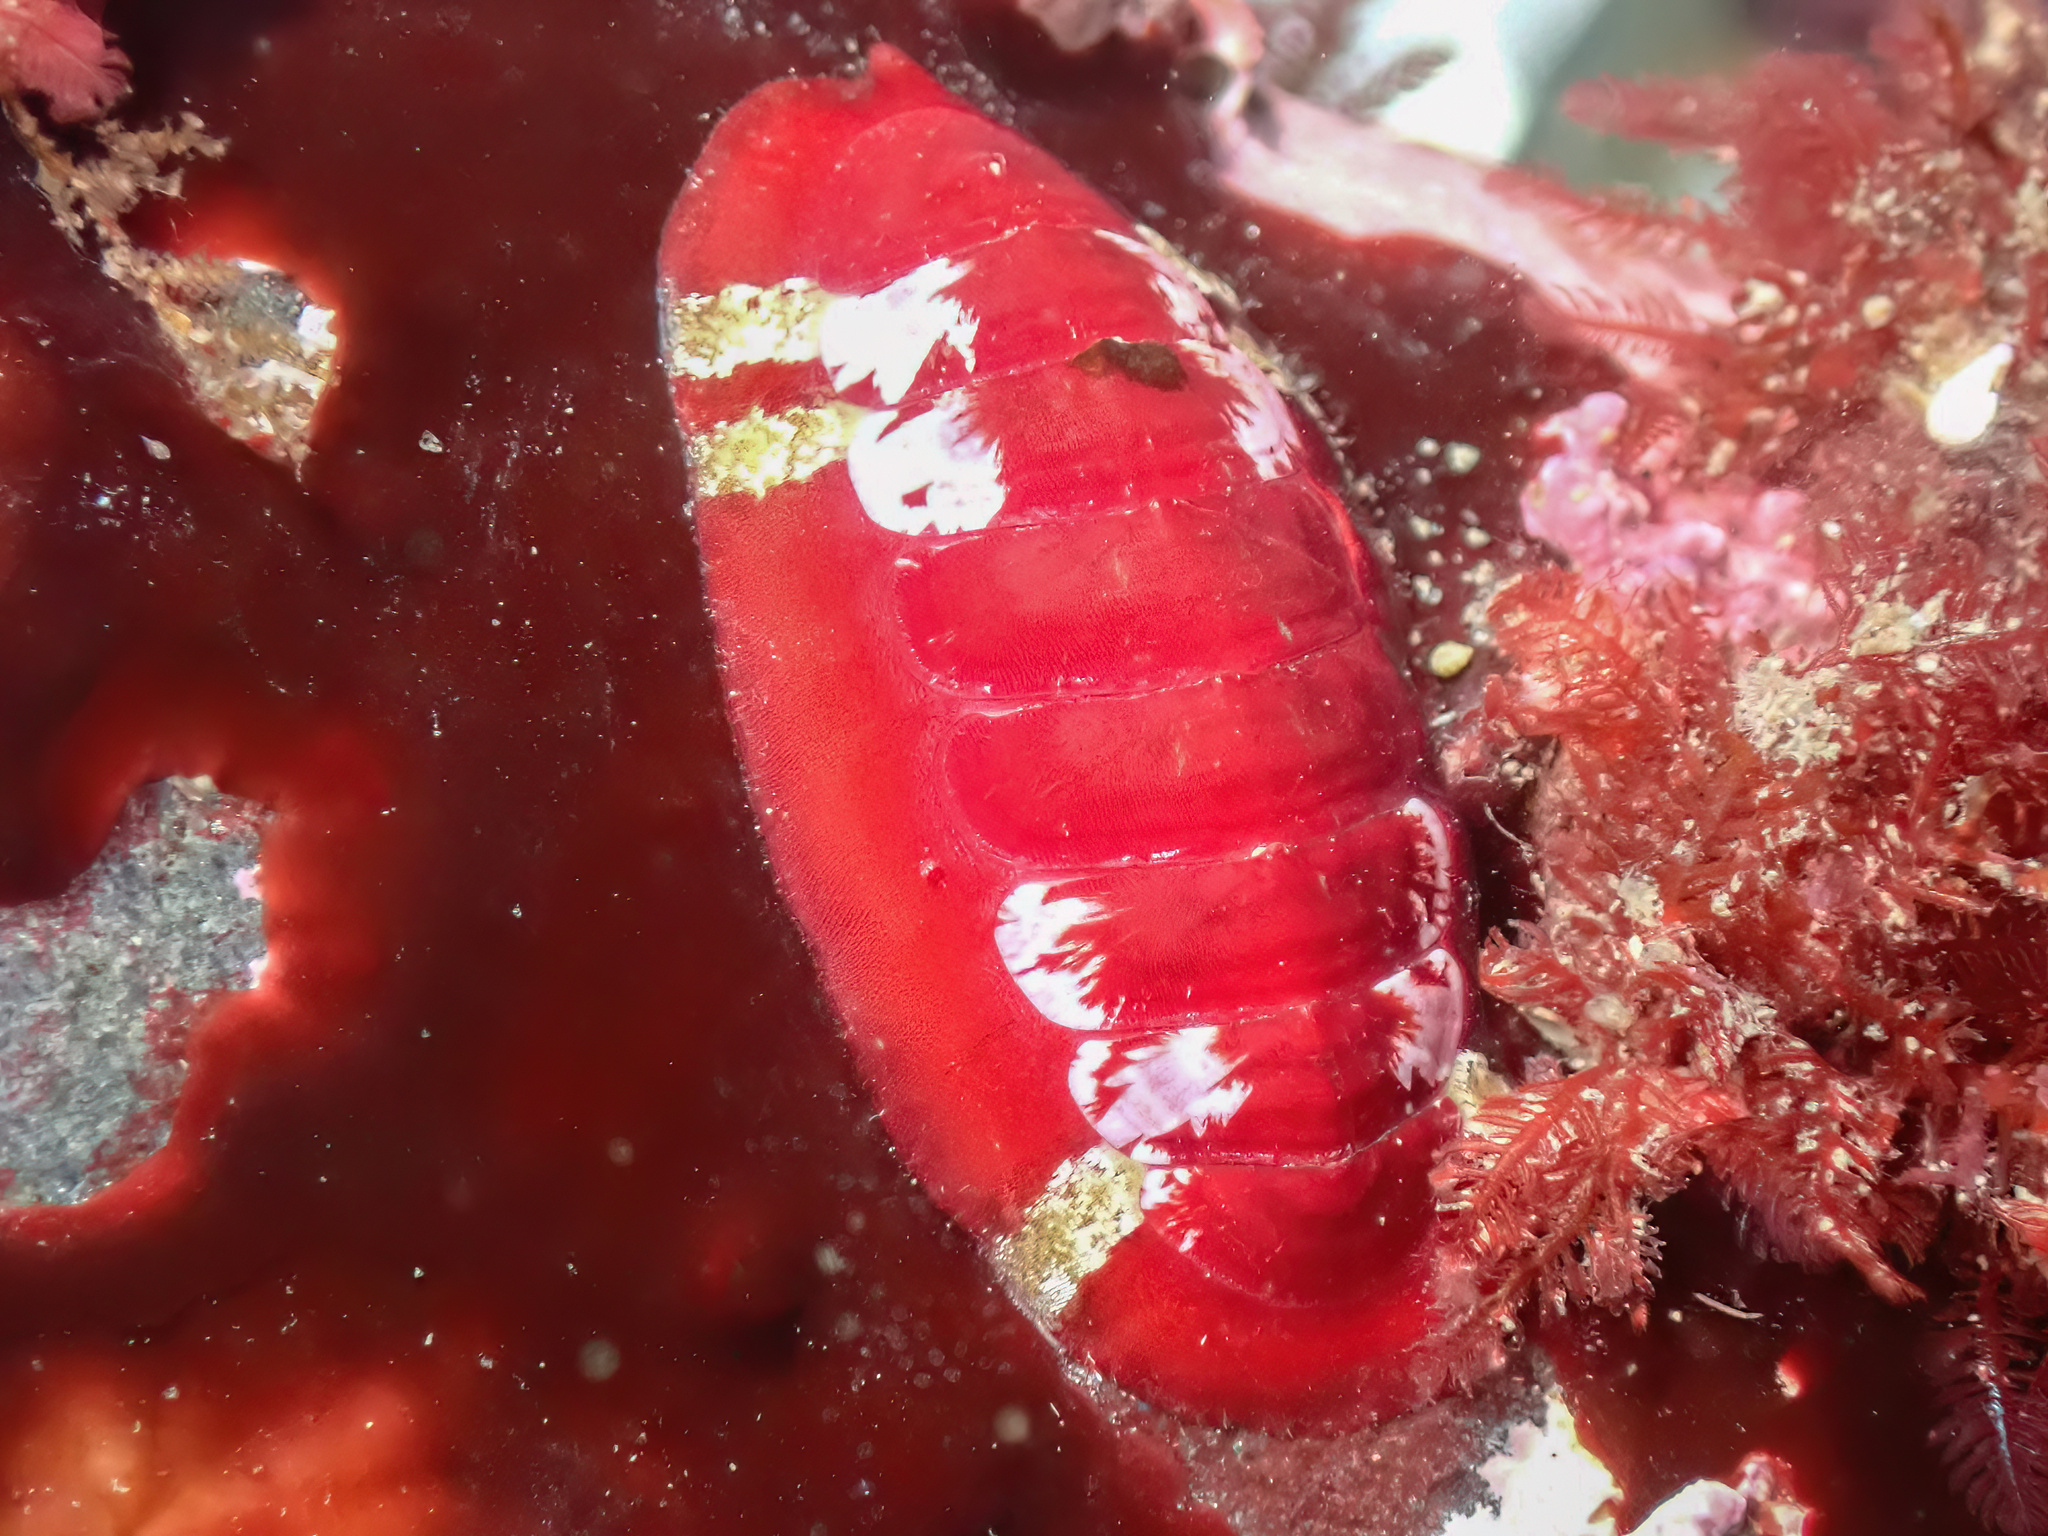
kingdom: Animalia
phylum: Mollusca
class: Polyplacophora
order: Callochitonida
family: Callochitonidae
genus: Callochiton
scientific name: Callochiton septemvalvis
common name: Sevenplated chiton
